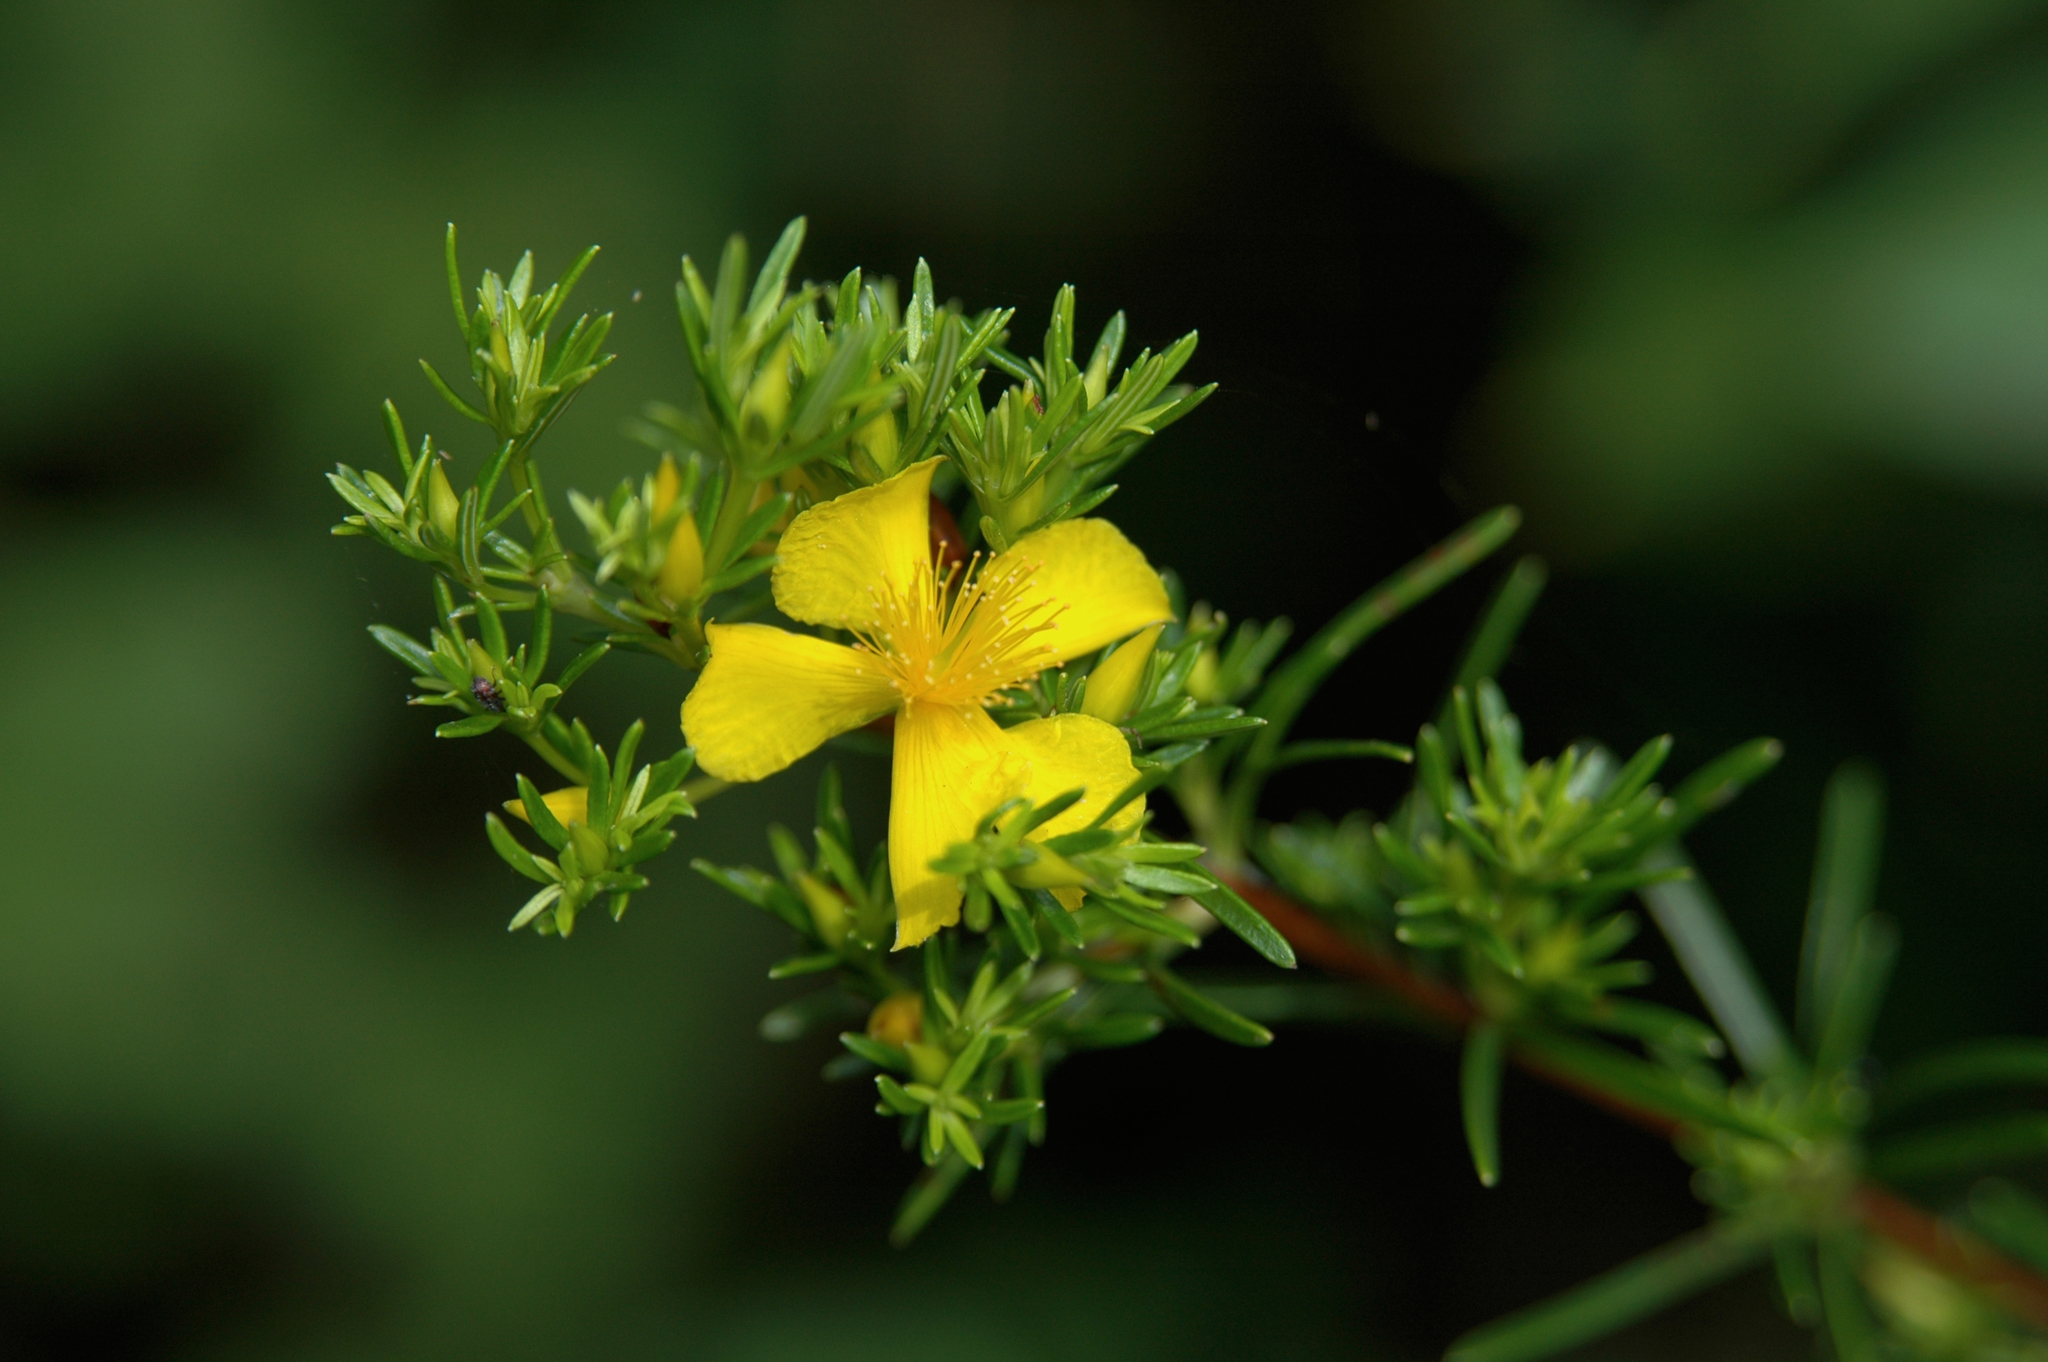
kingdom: Plantae
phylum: Tracheophyta
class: Magnoliopsida
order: Malpighiales
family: Hypericaceae
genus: Hypericum
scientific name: Hypericum brachyphyllum
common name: Coastal plain st. john's-wort
